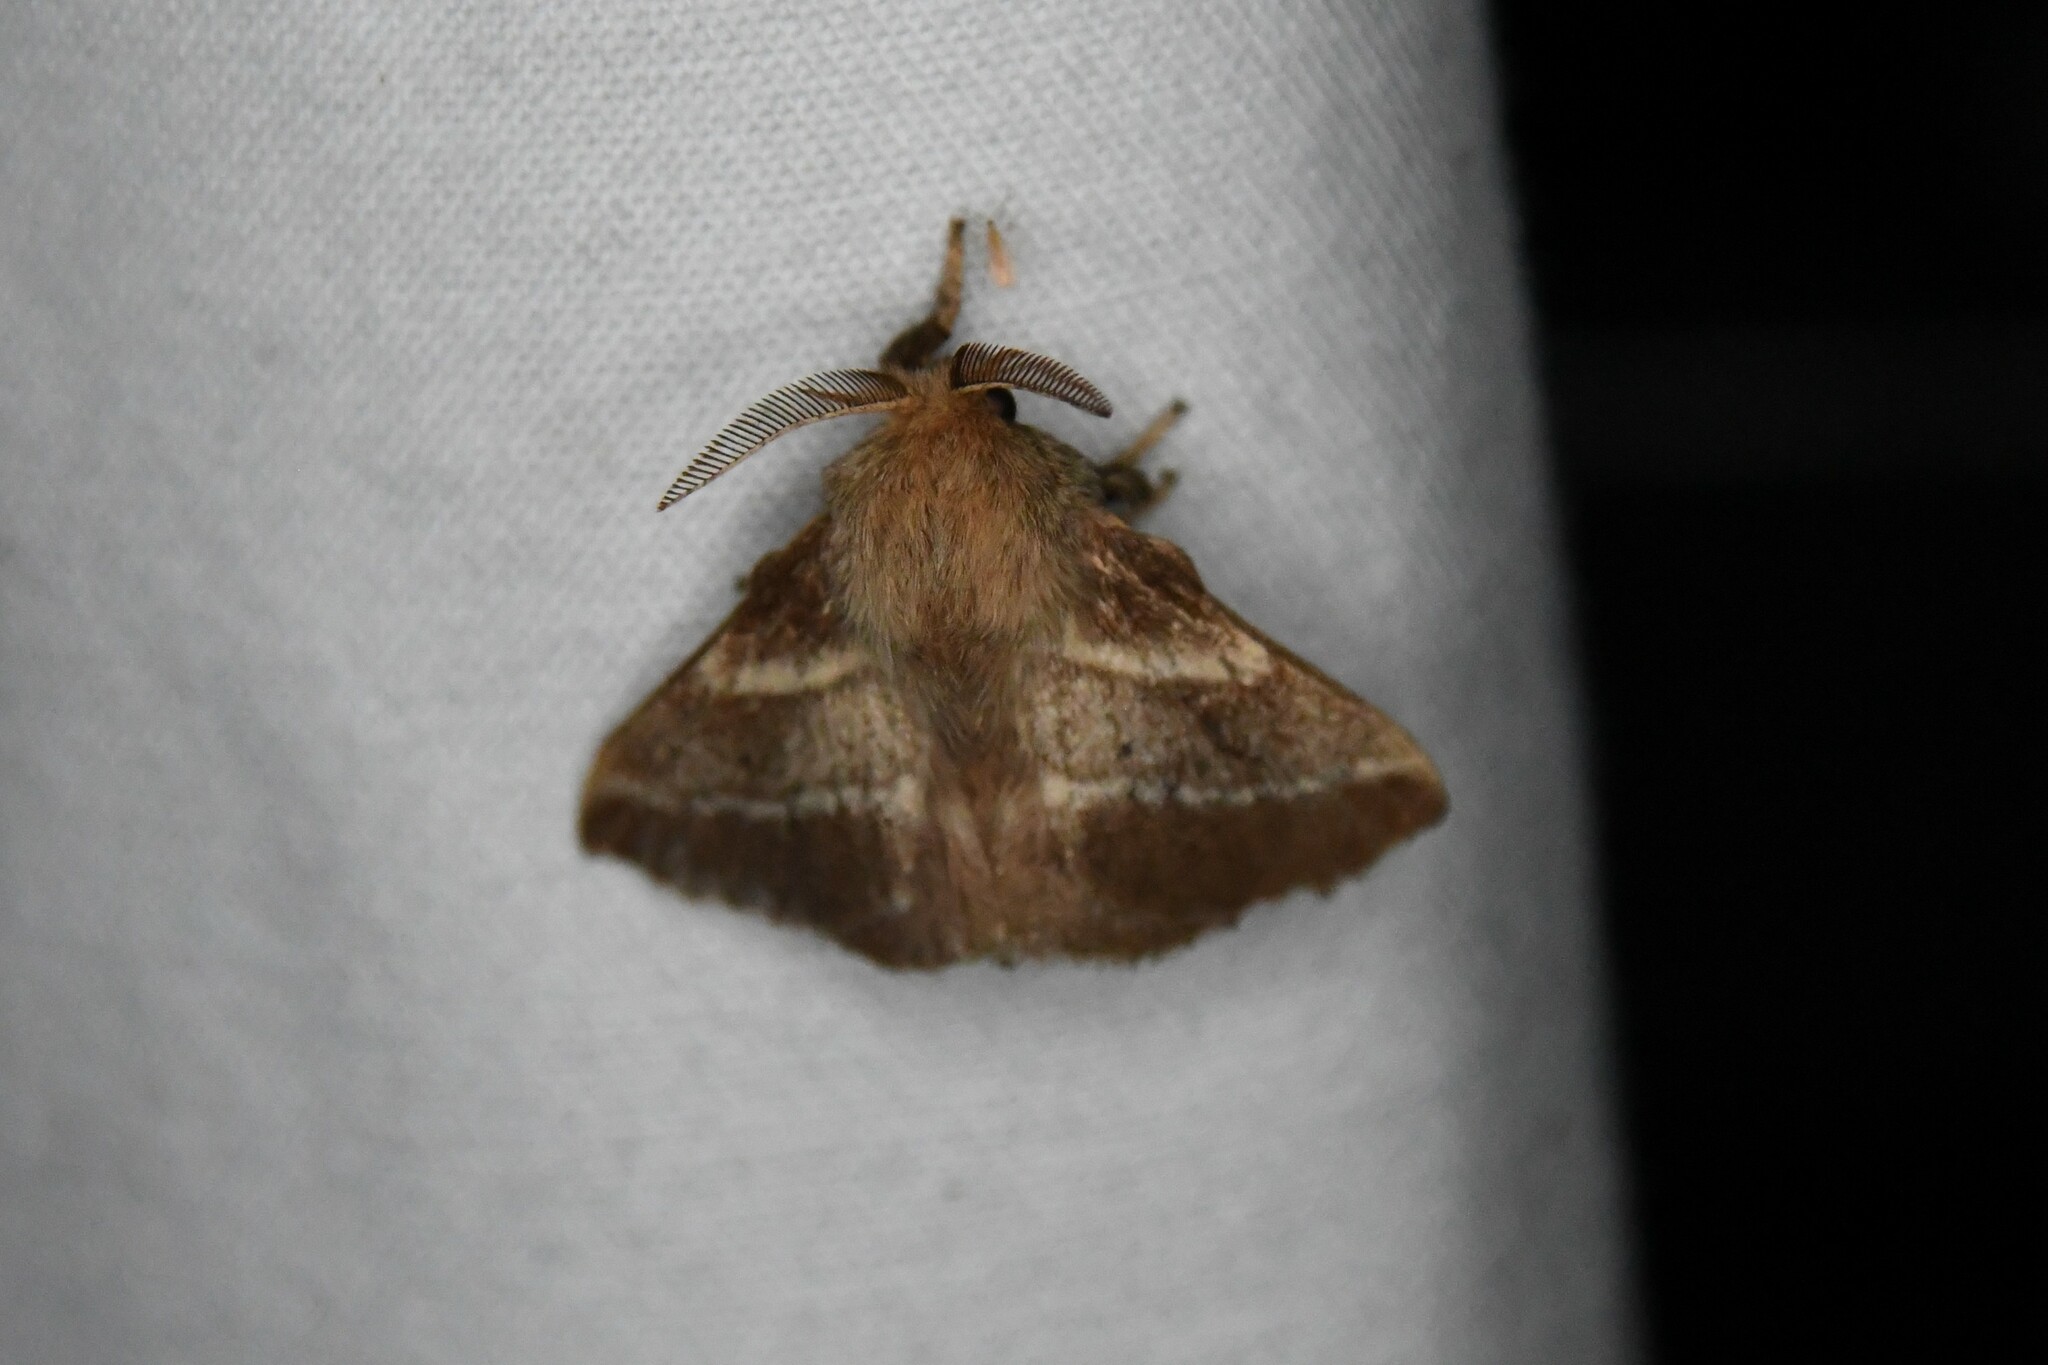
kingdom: Animalia
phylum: Arthropoda
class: Insecta
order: Lepidoptera
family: Lasiocampidae
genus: Malacosoma
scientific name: Malacosoma americana
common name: Eastern tent caterpillar moth
